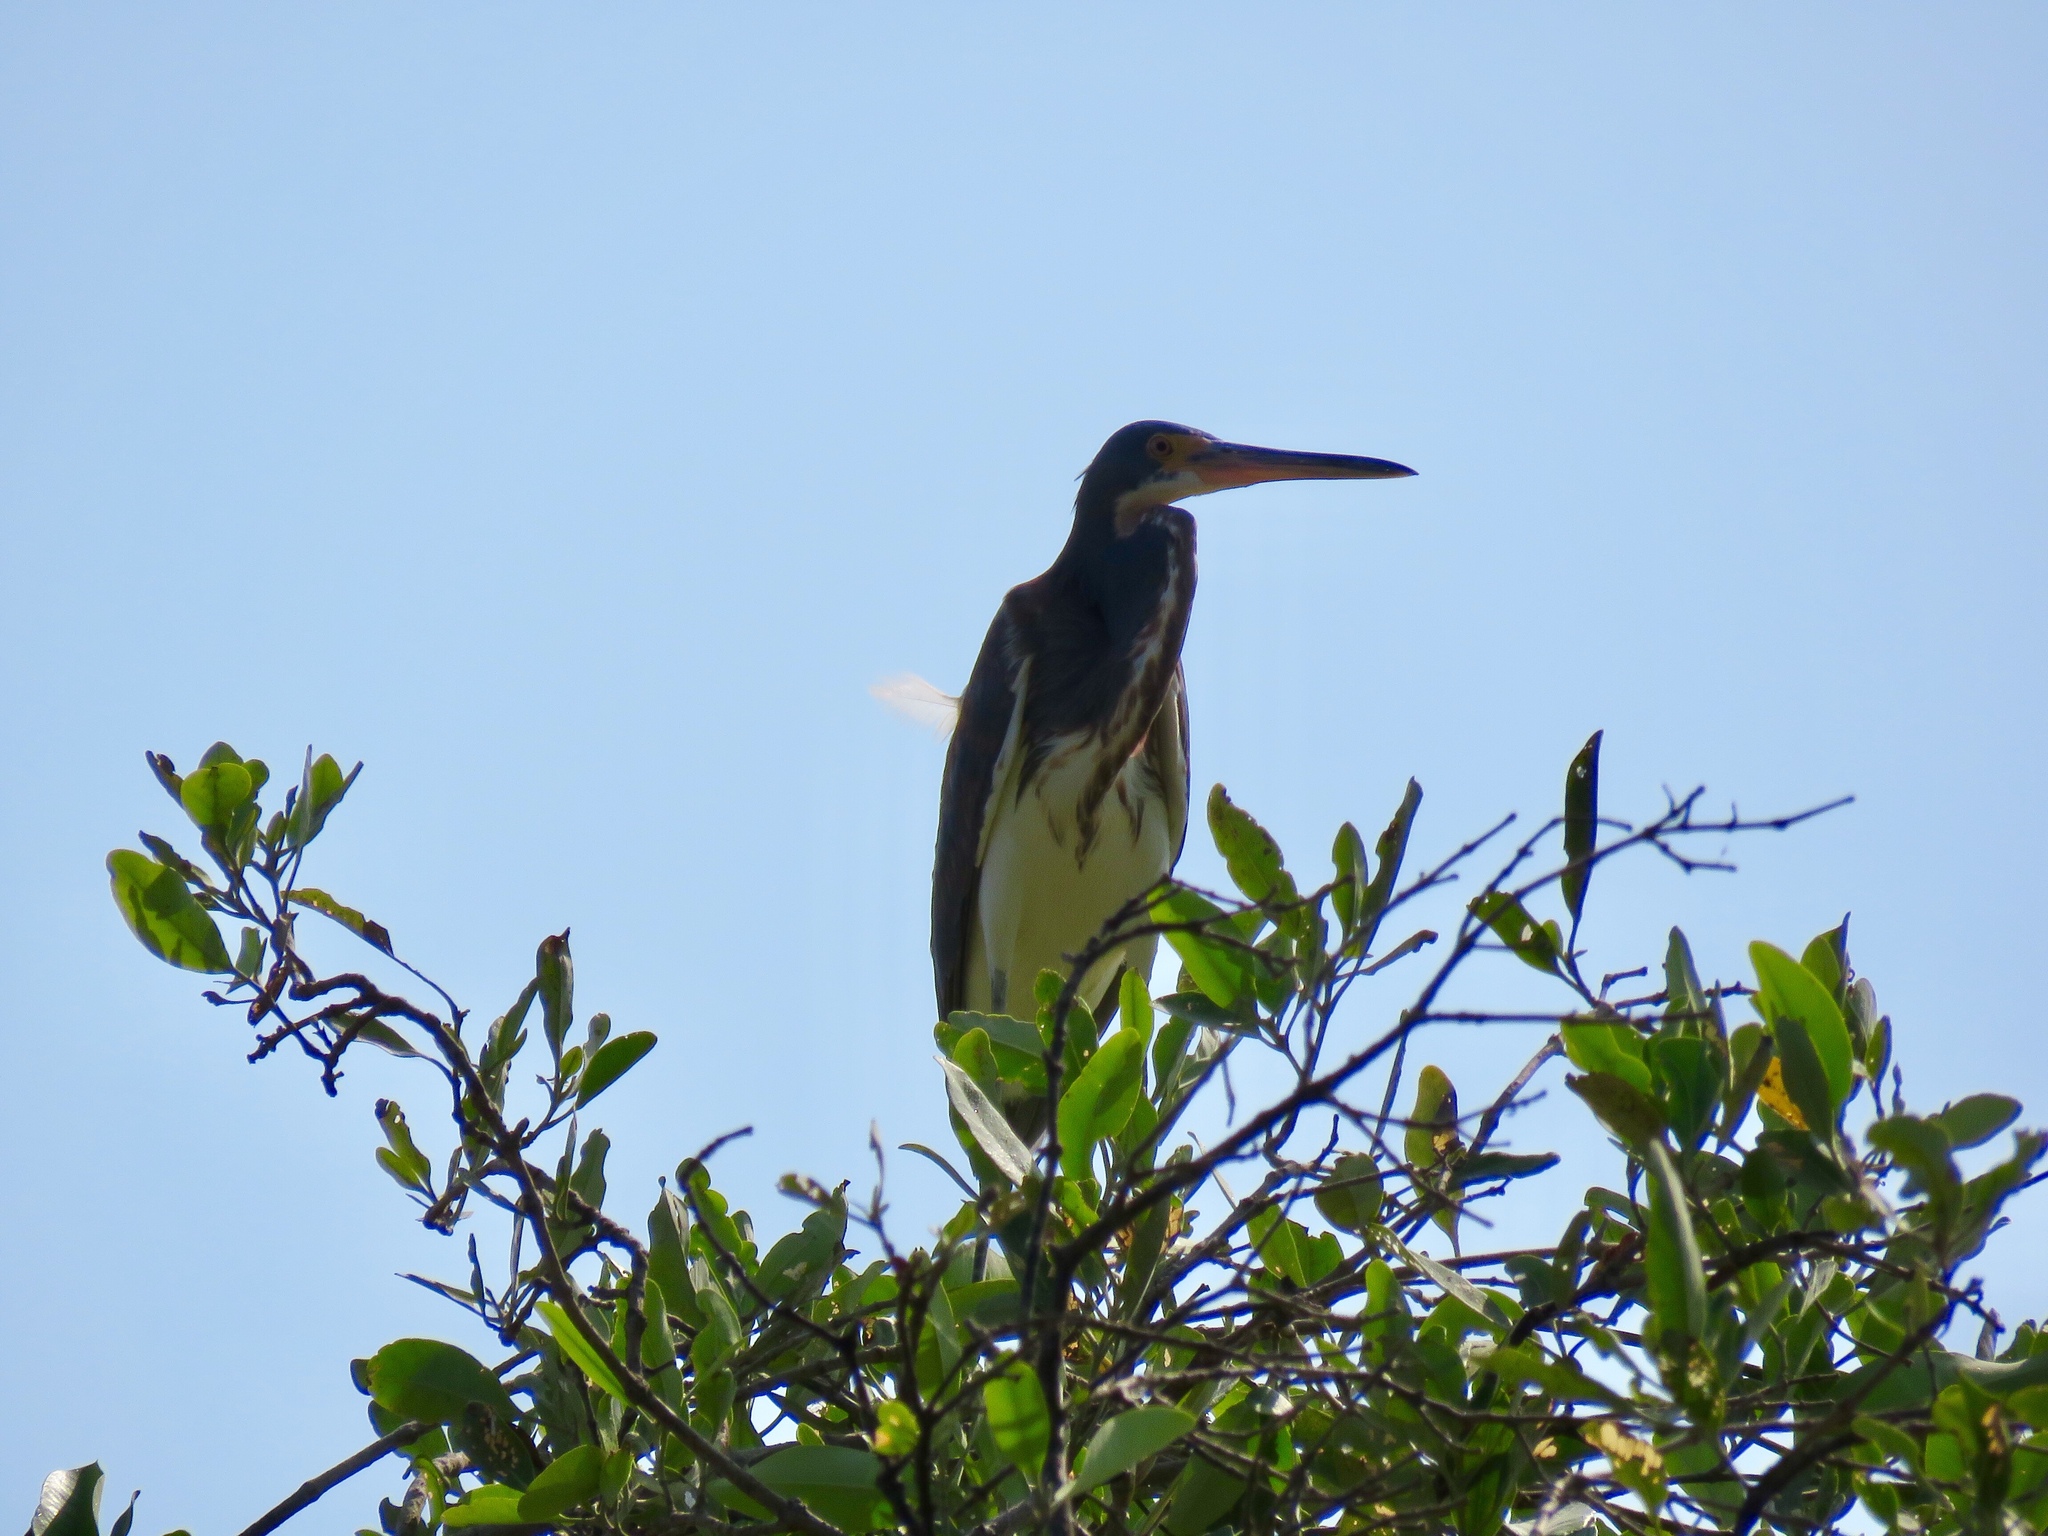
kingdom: Animalia
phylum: Chordata
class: Aves
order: Pelecaniformes
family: Ardeidae
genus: Egretta
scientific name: Egretta tricolor
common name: Tricolored heron
